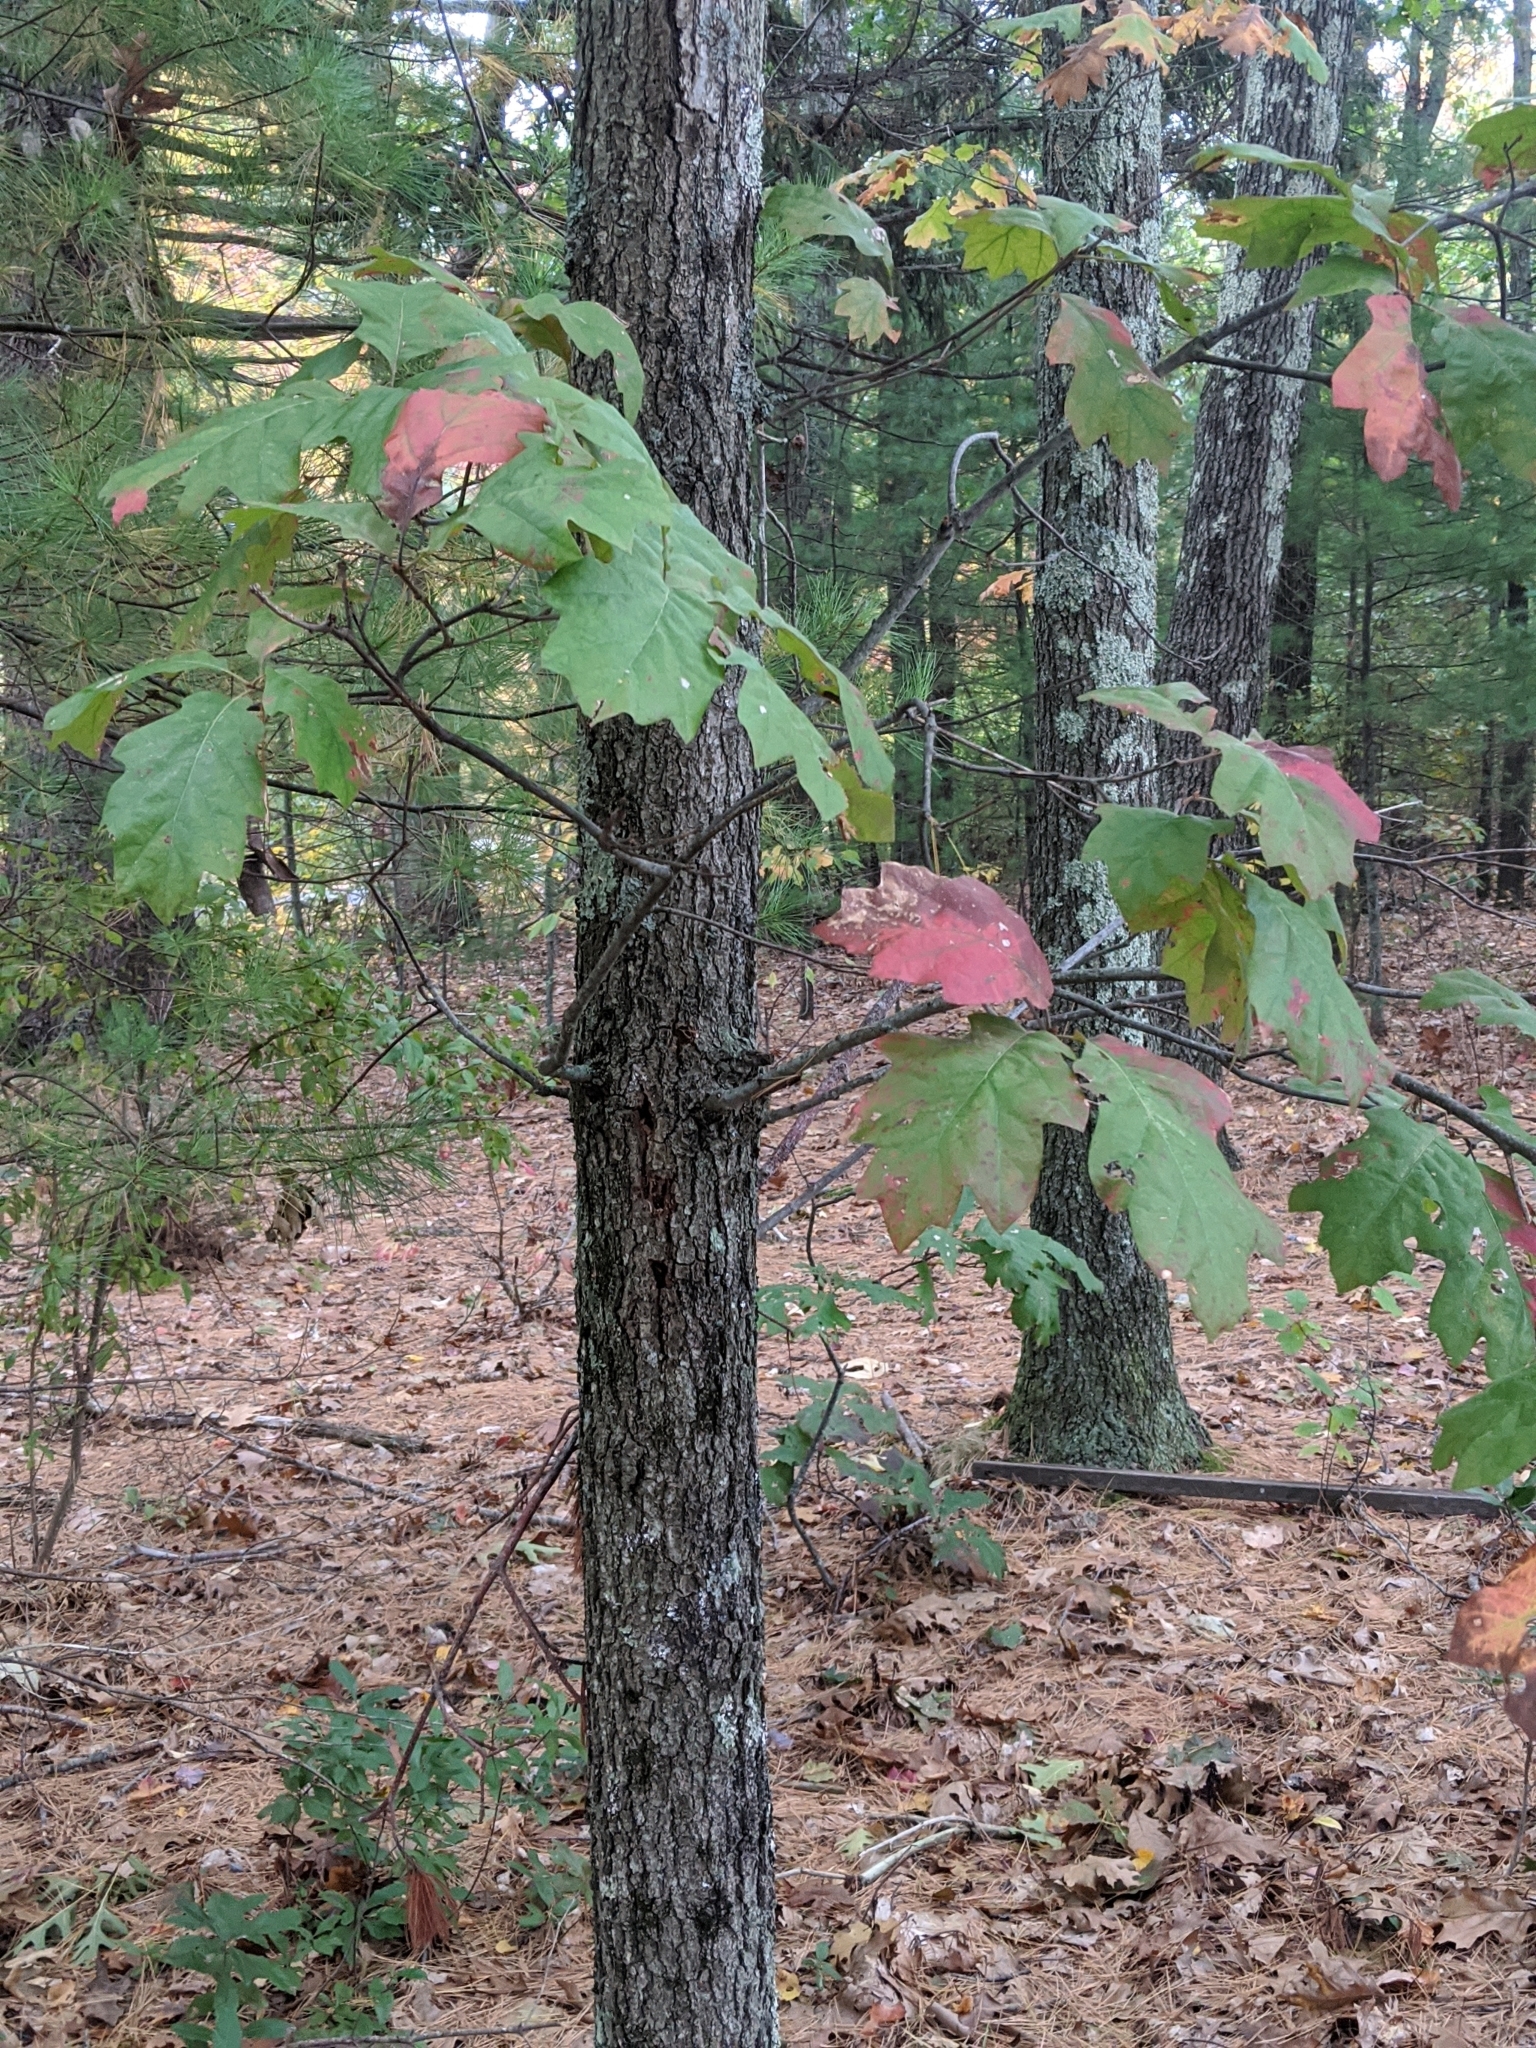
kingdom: Plantae
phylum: Tracheophyta
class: Magnoliopsida
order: Fagales
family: Fagaceae
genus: Quercus
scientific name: Quercus rubra
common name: Red oak
